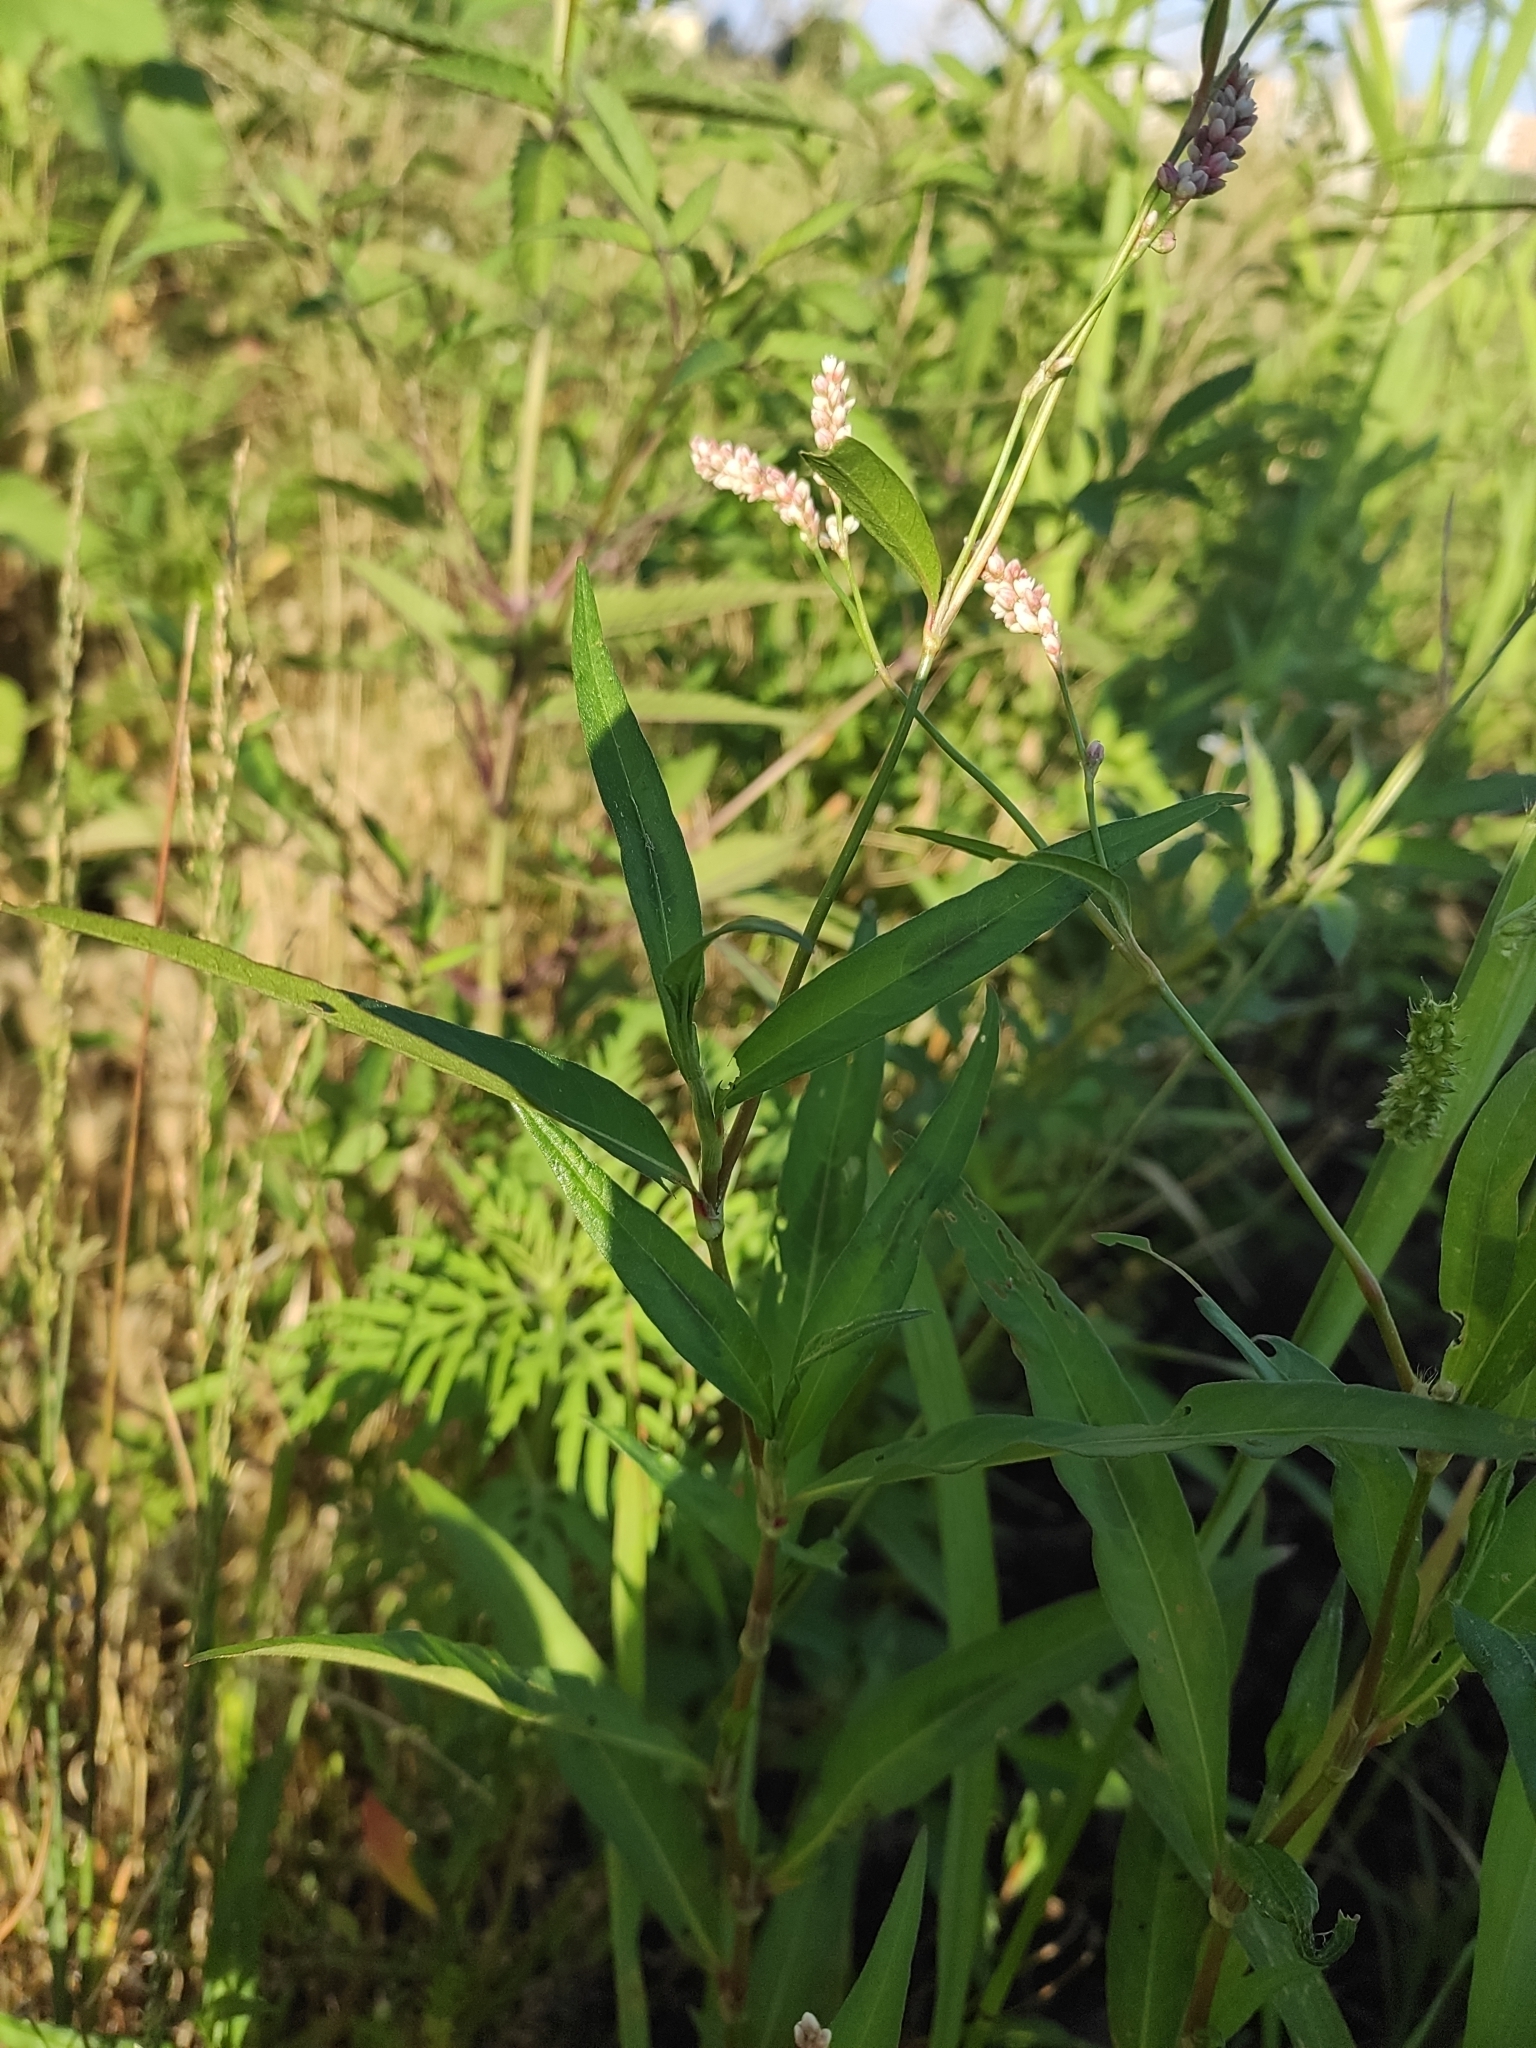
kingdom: Plantae
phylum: Tracheophyta
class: Magnoliopsida
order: Caryophyllales
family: Polygonaceae
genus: Persicaria
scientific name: Persicaria maculosa
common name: Redshank
